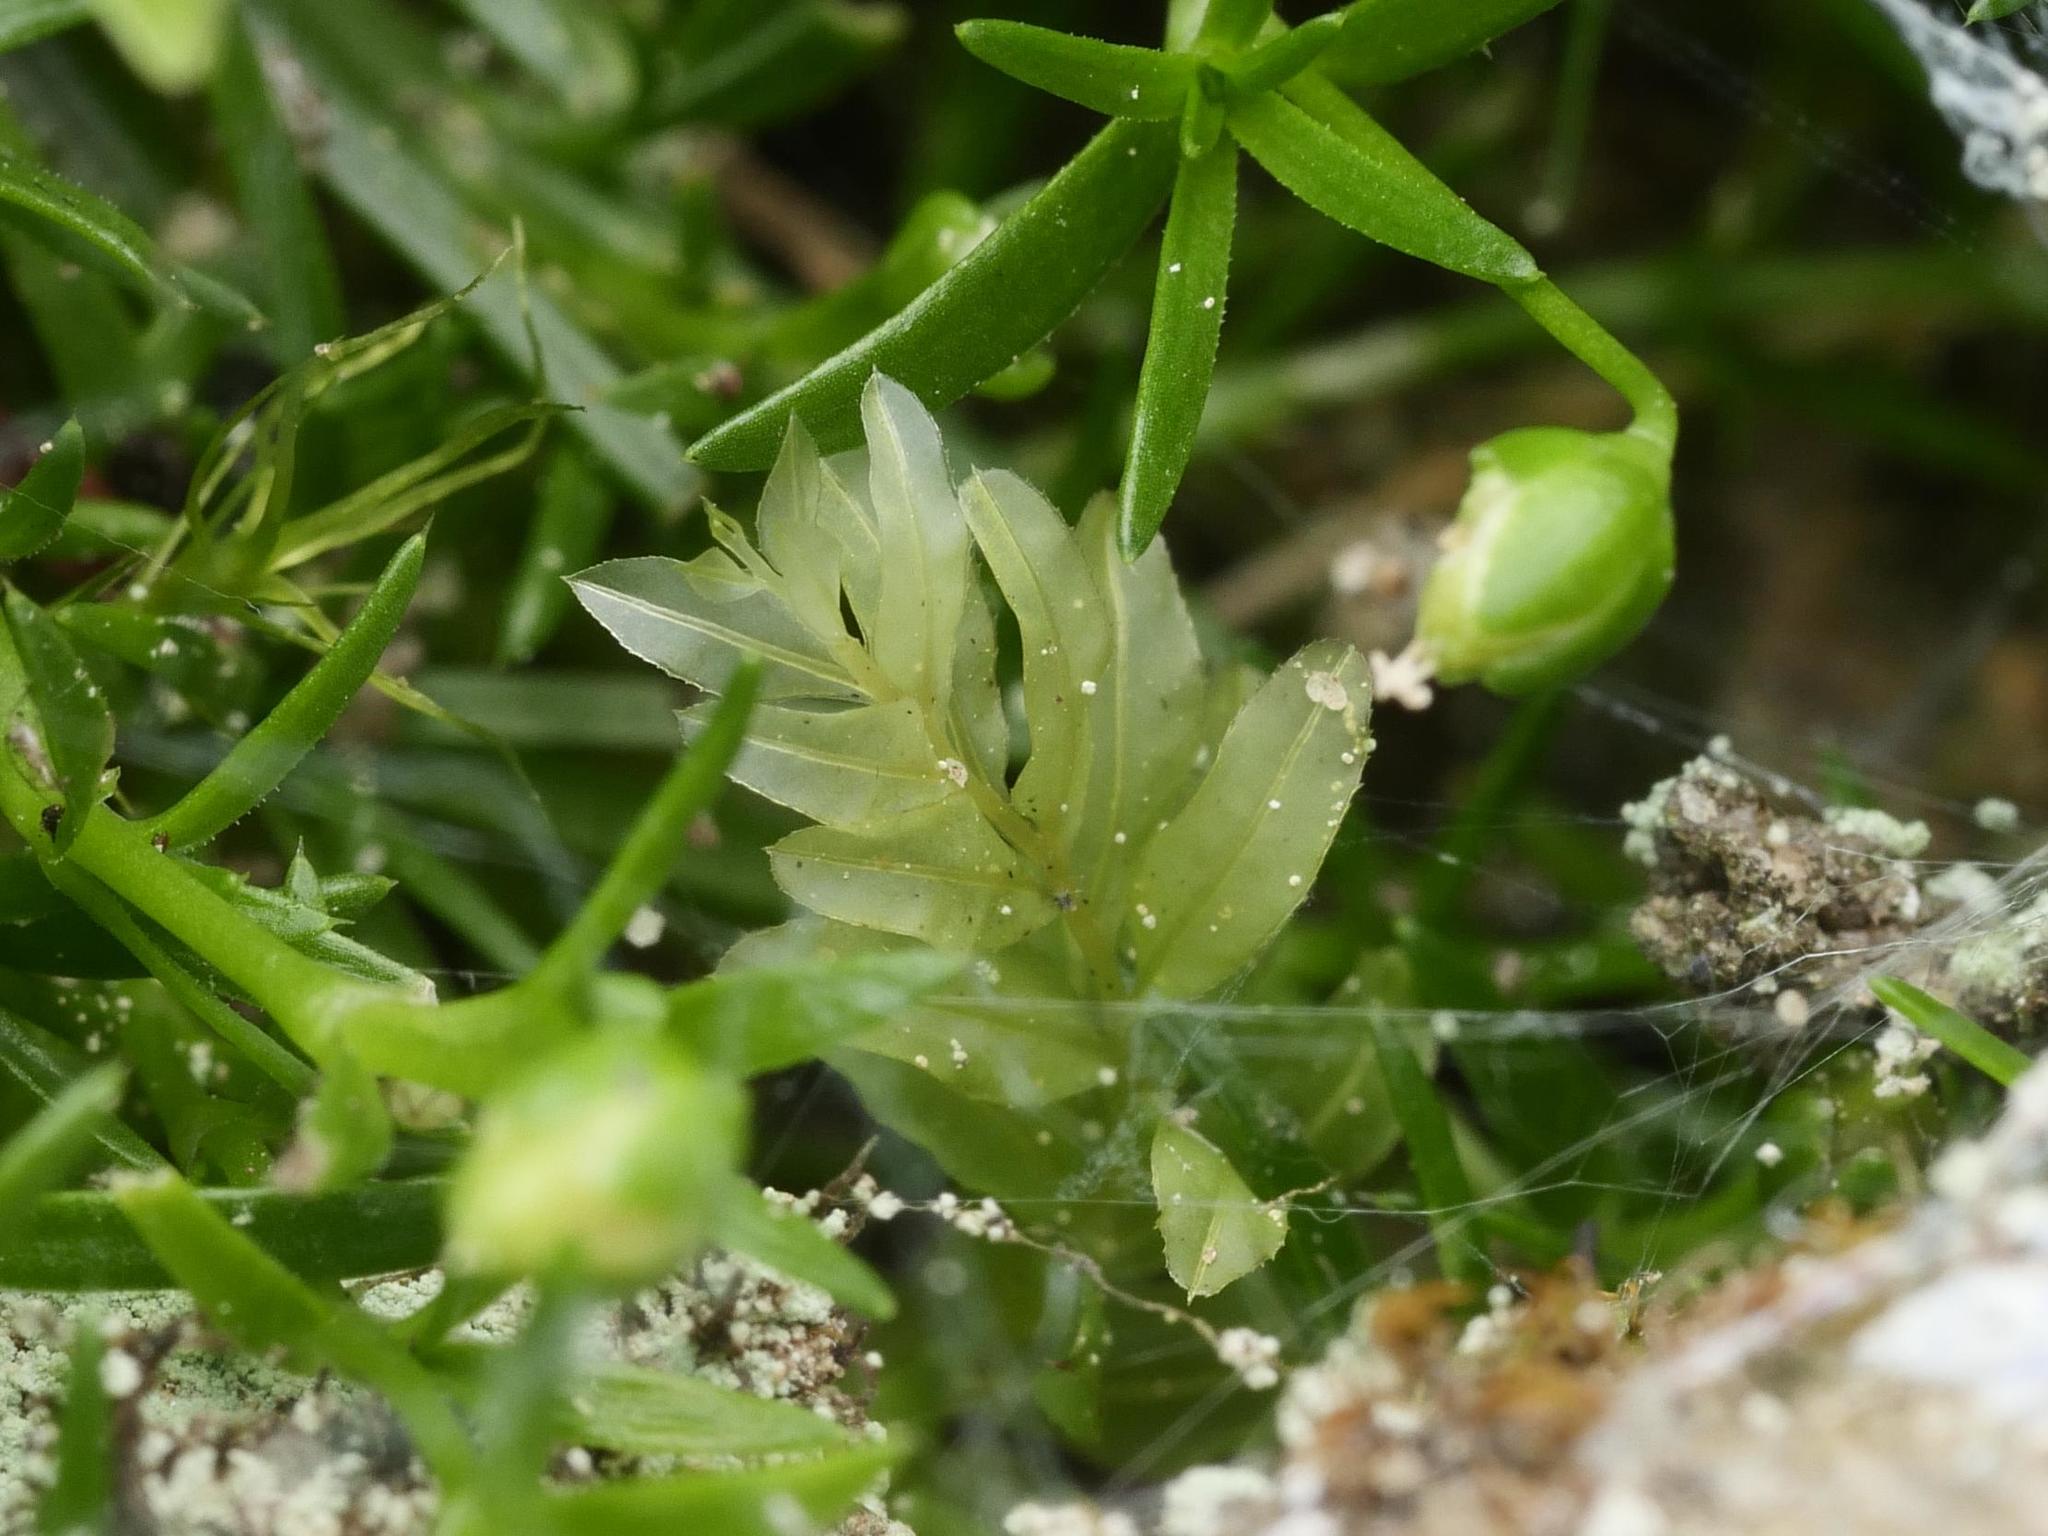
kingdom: Plantae
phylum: Bryophyta
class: Bryopsida
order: Bryales
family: Mniaceae
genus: Plagiomnium
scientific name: Plagiomnium undulatum
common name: Hart's-tongue thyme-moss
